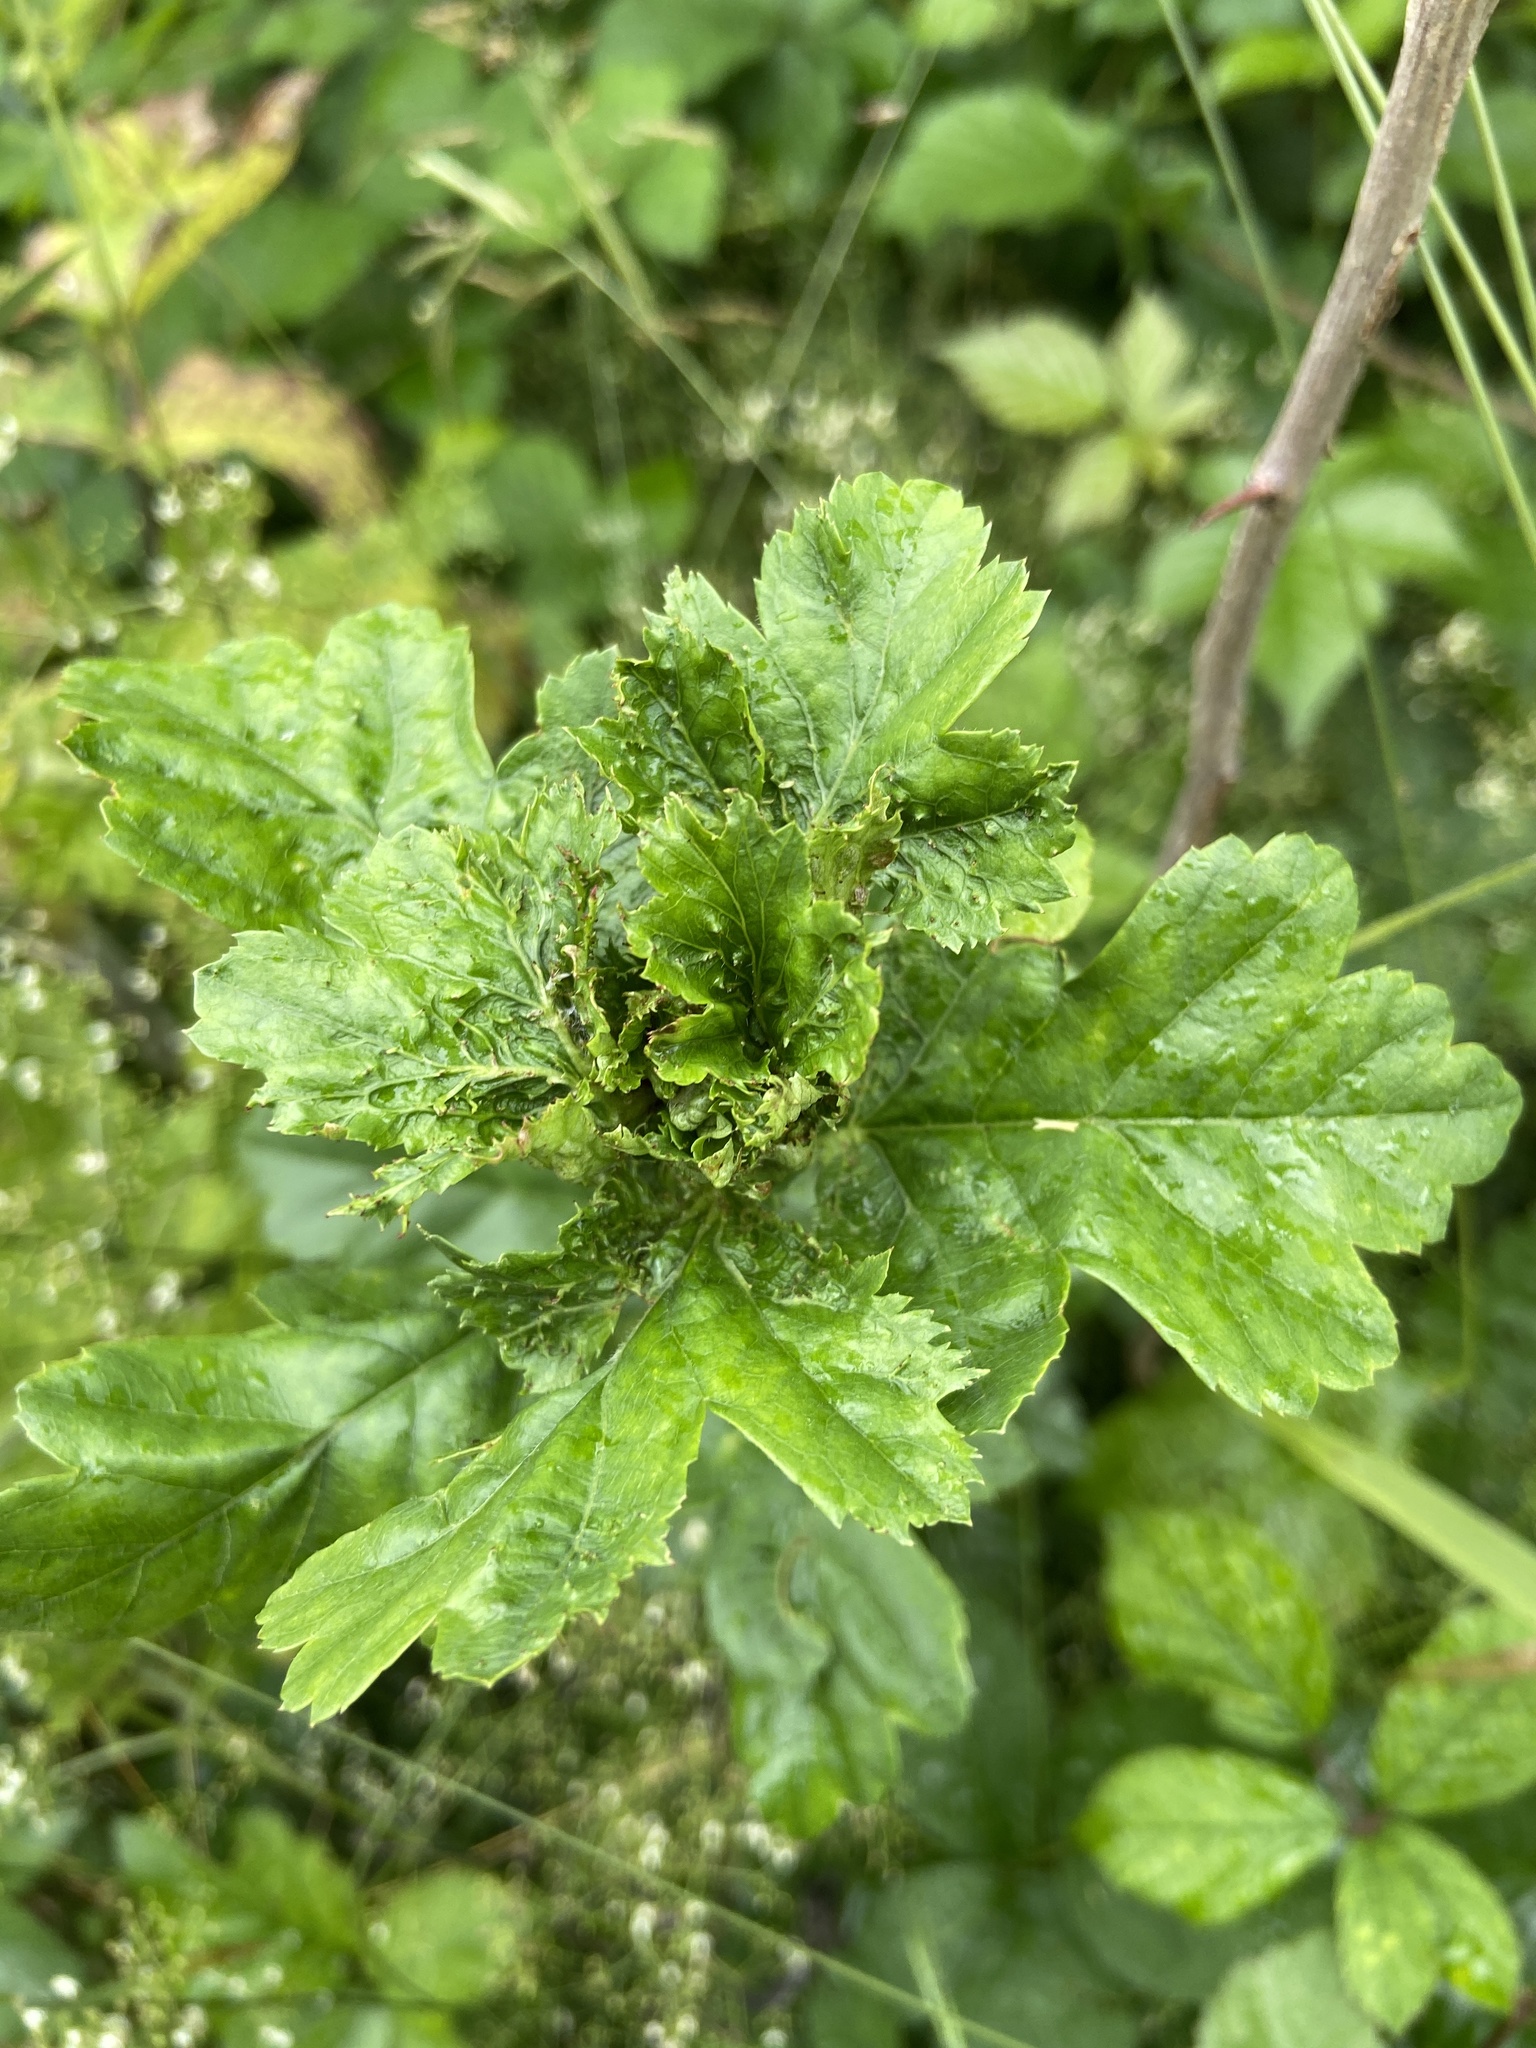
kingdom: Animalia
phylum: Arthropoda
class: Insecta
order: Diptera
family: Cecidomyiidae
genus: Dasineura
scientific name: Dasineura crataegi
